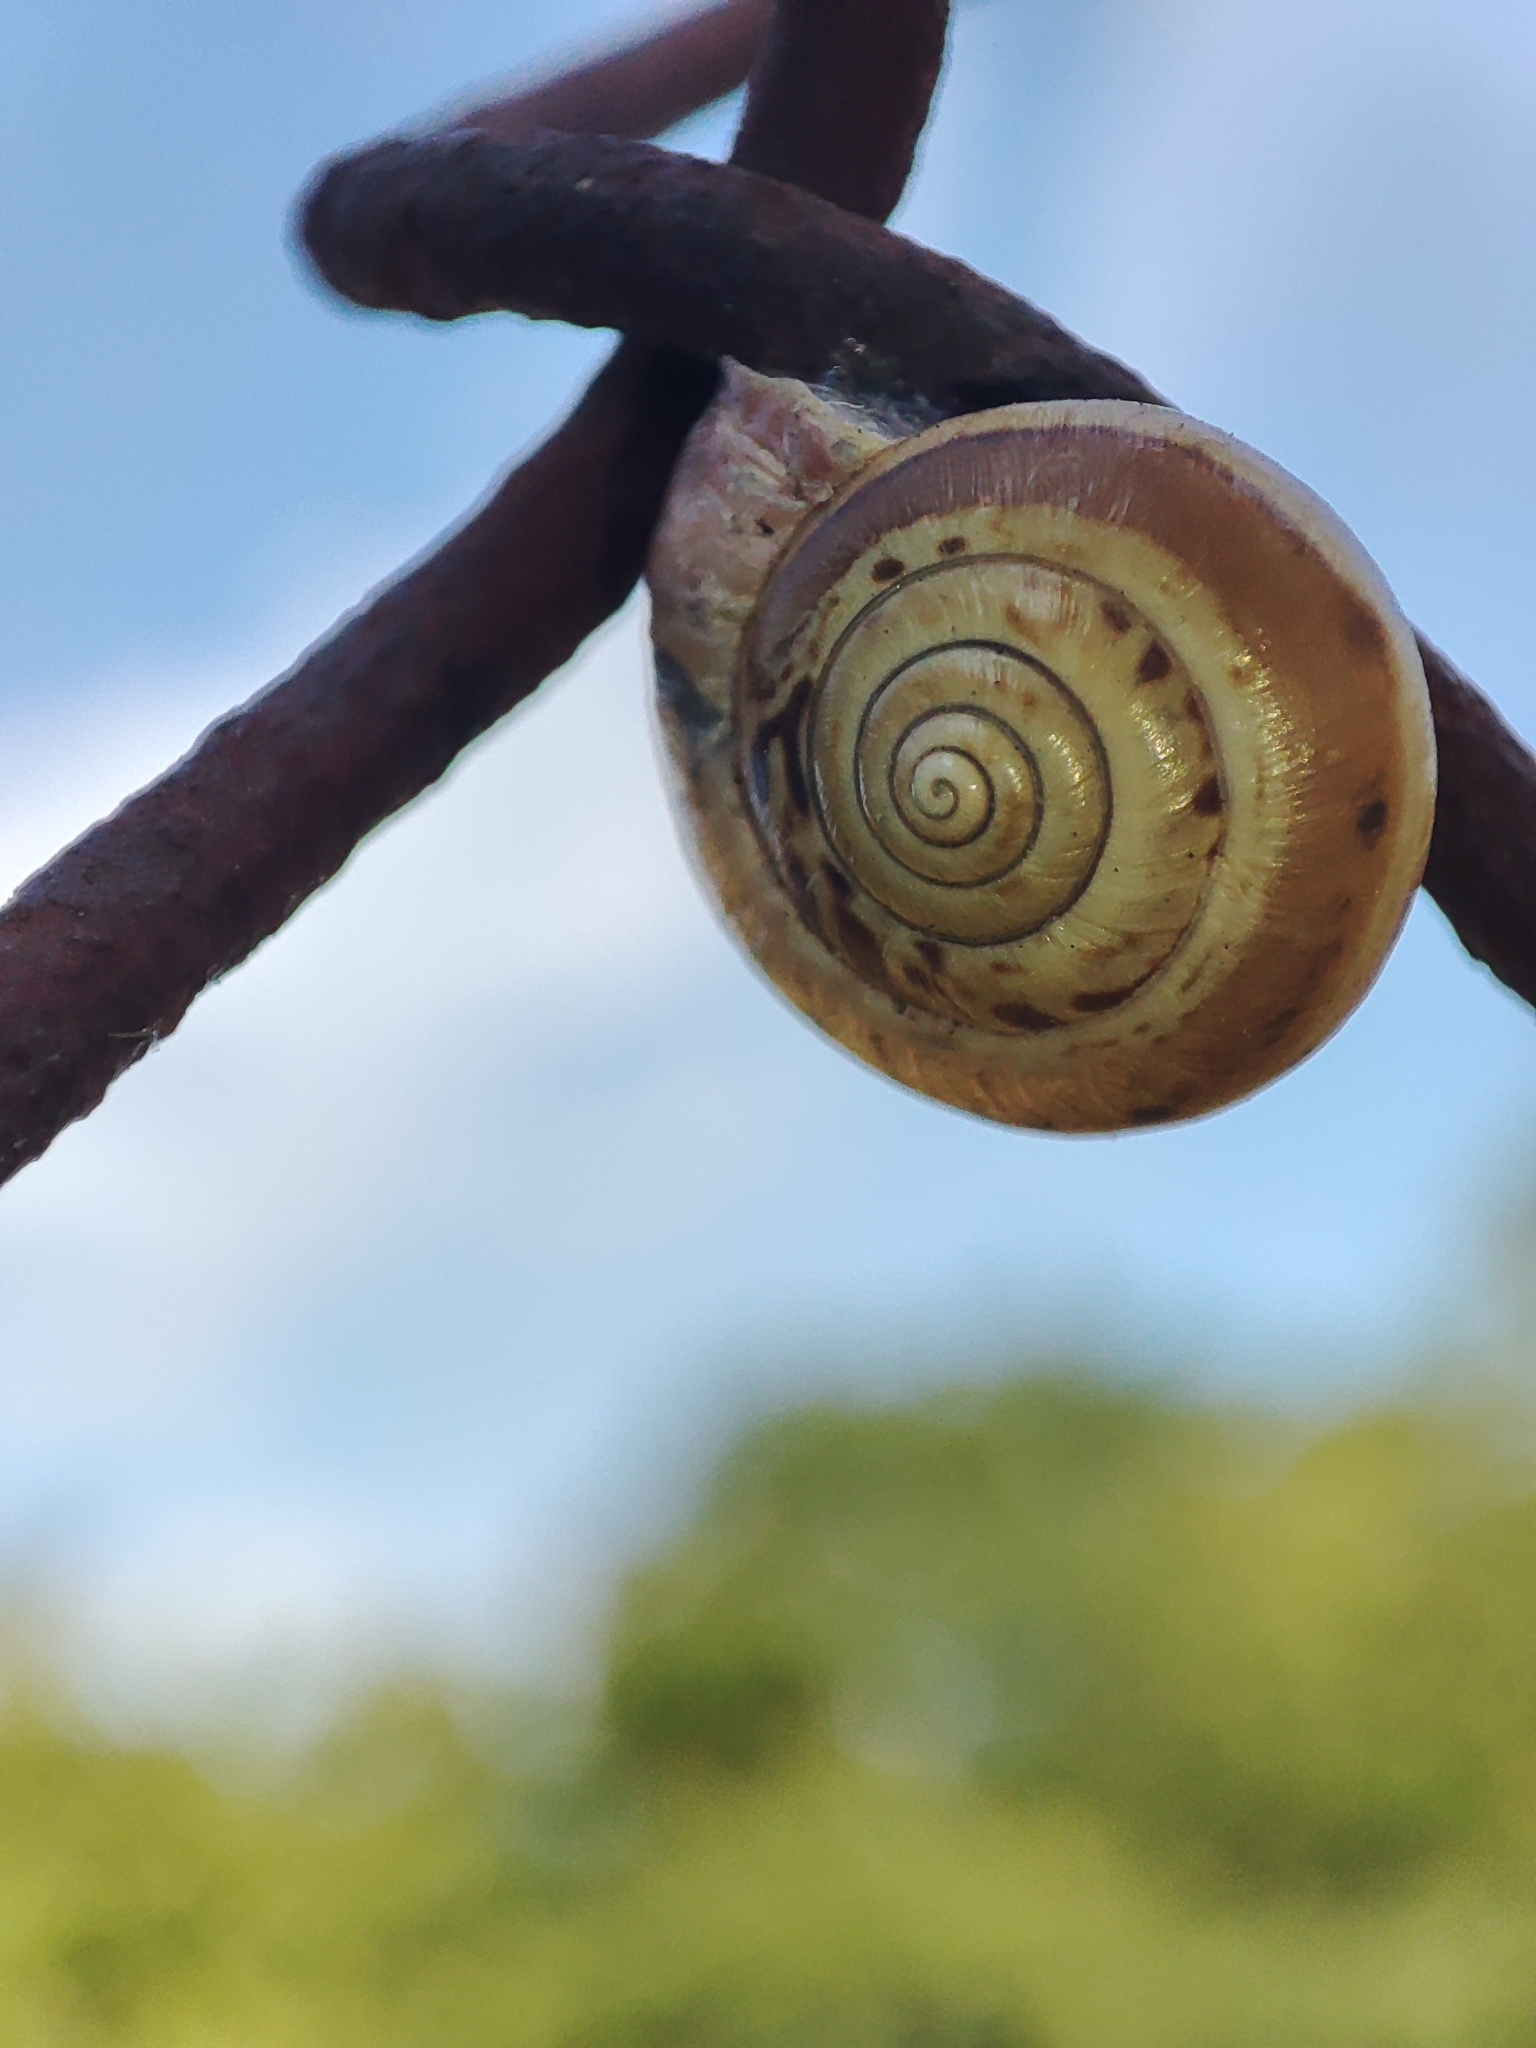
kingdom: Animalia
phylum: Mollusca
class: Gastropoda
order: Stylommatophora
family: Hygromiidae
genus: Monacha
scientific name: Monacha cartusiana
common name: Carthusian snail
